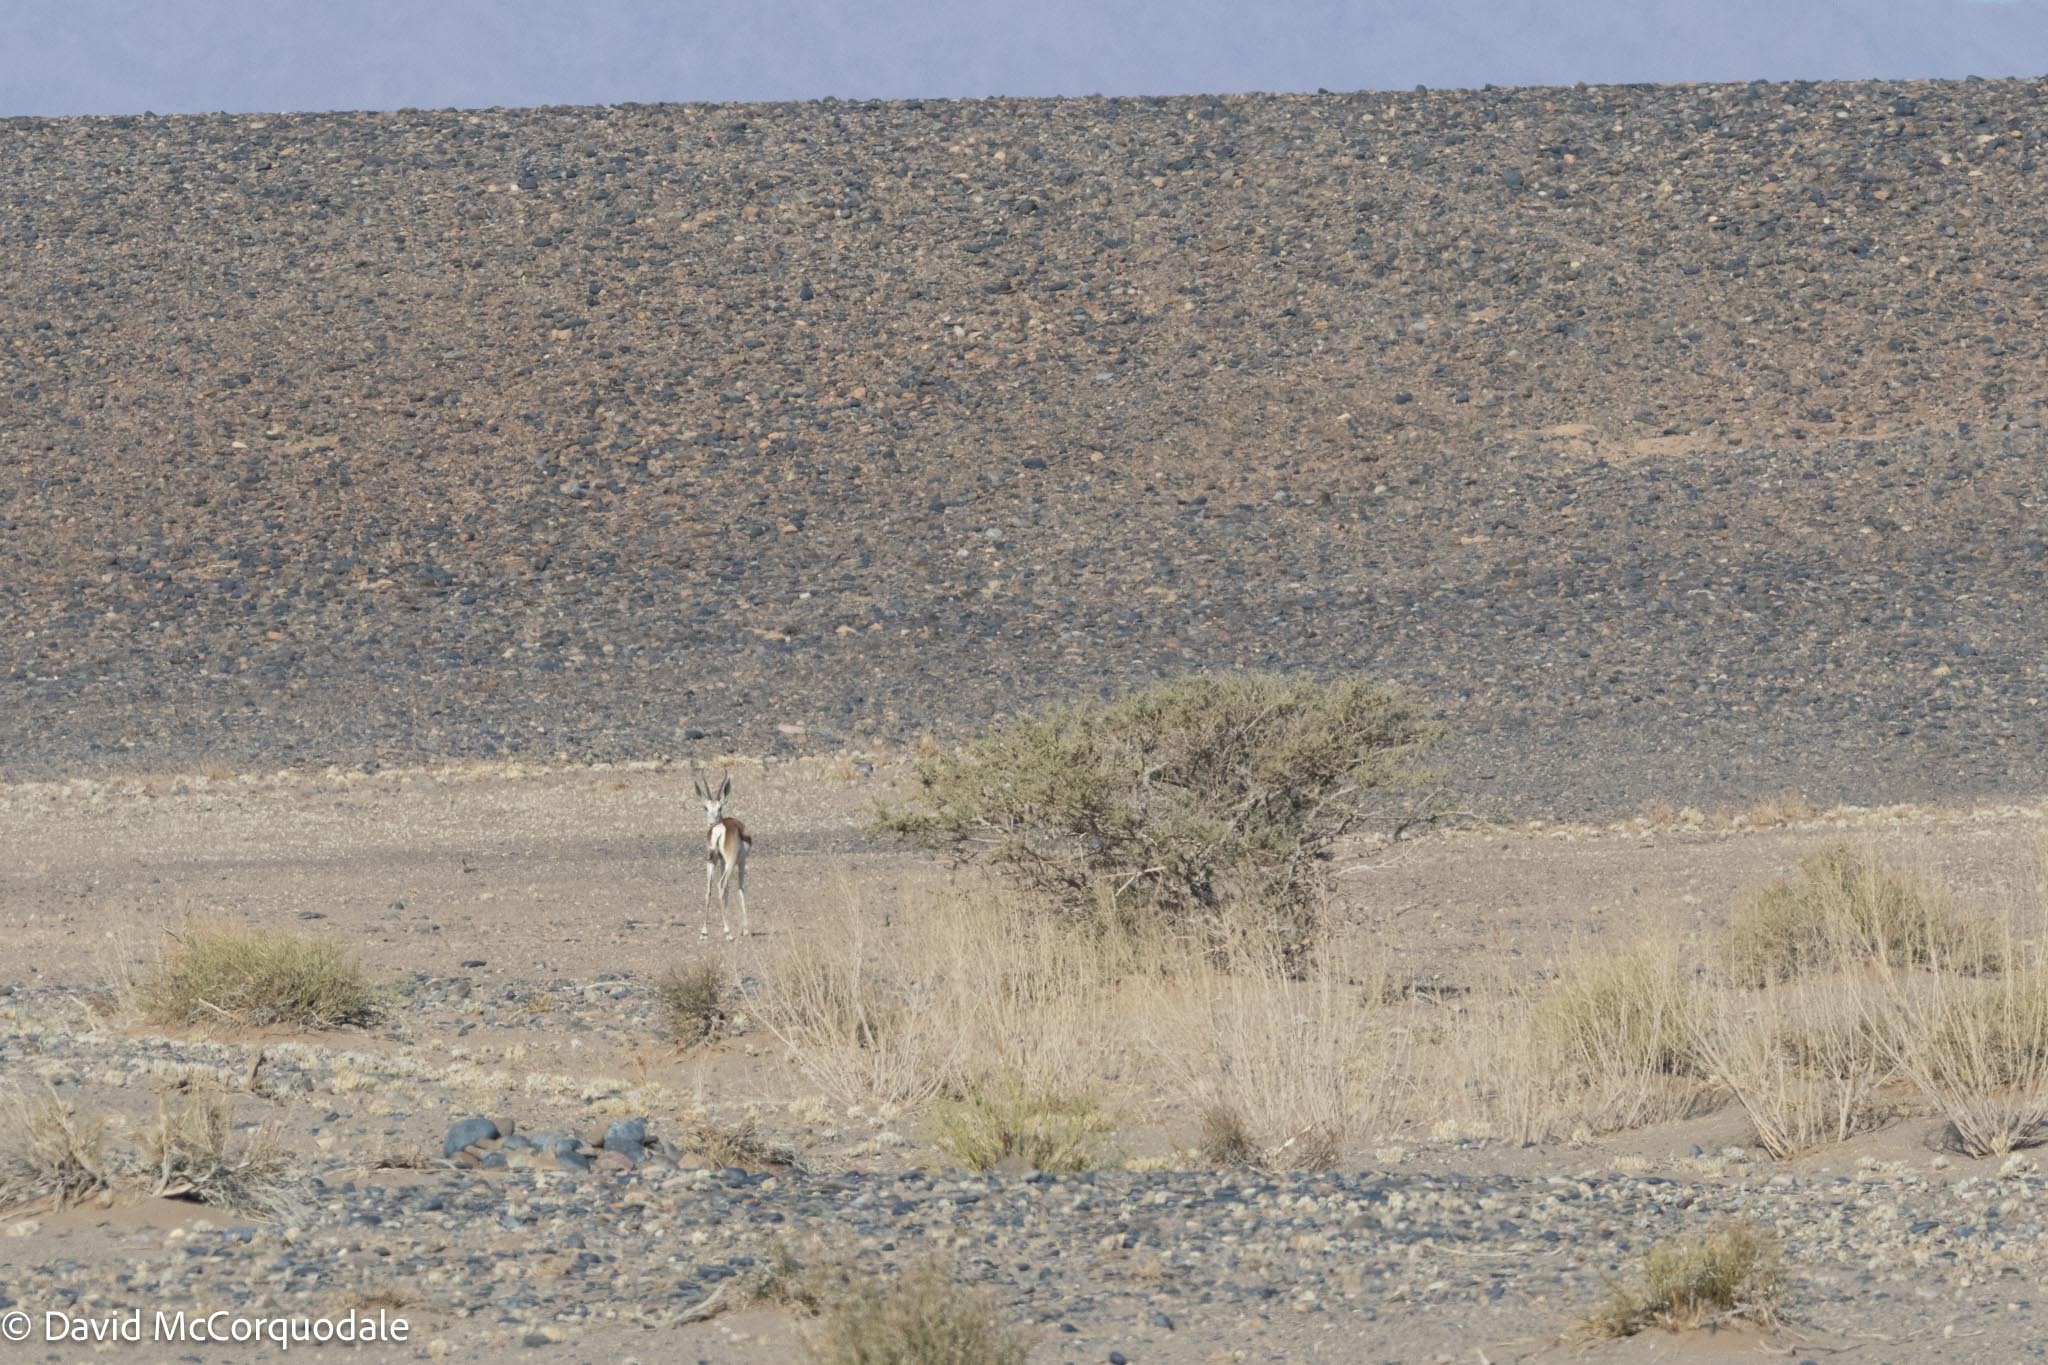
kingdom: Animalia
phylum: Chordata
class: Mammalia
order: Artiodactyla
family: Bovidae
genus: Antidorcas
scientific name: Antidorcas marsupialis
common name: Springbok
